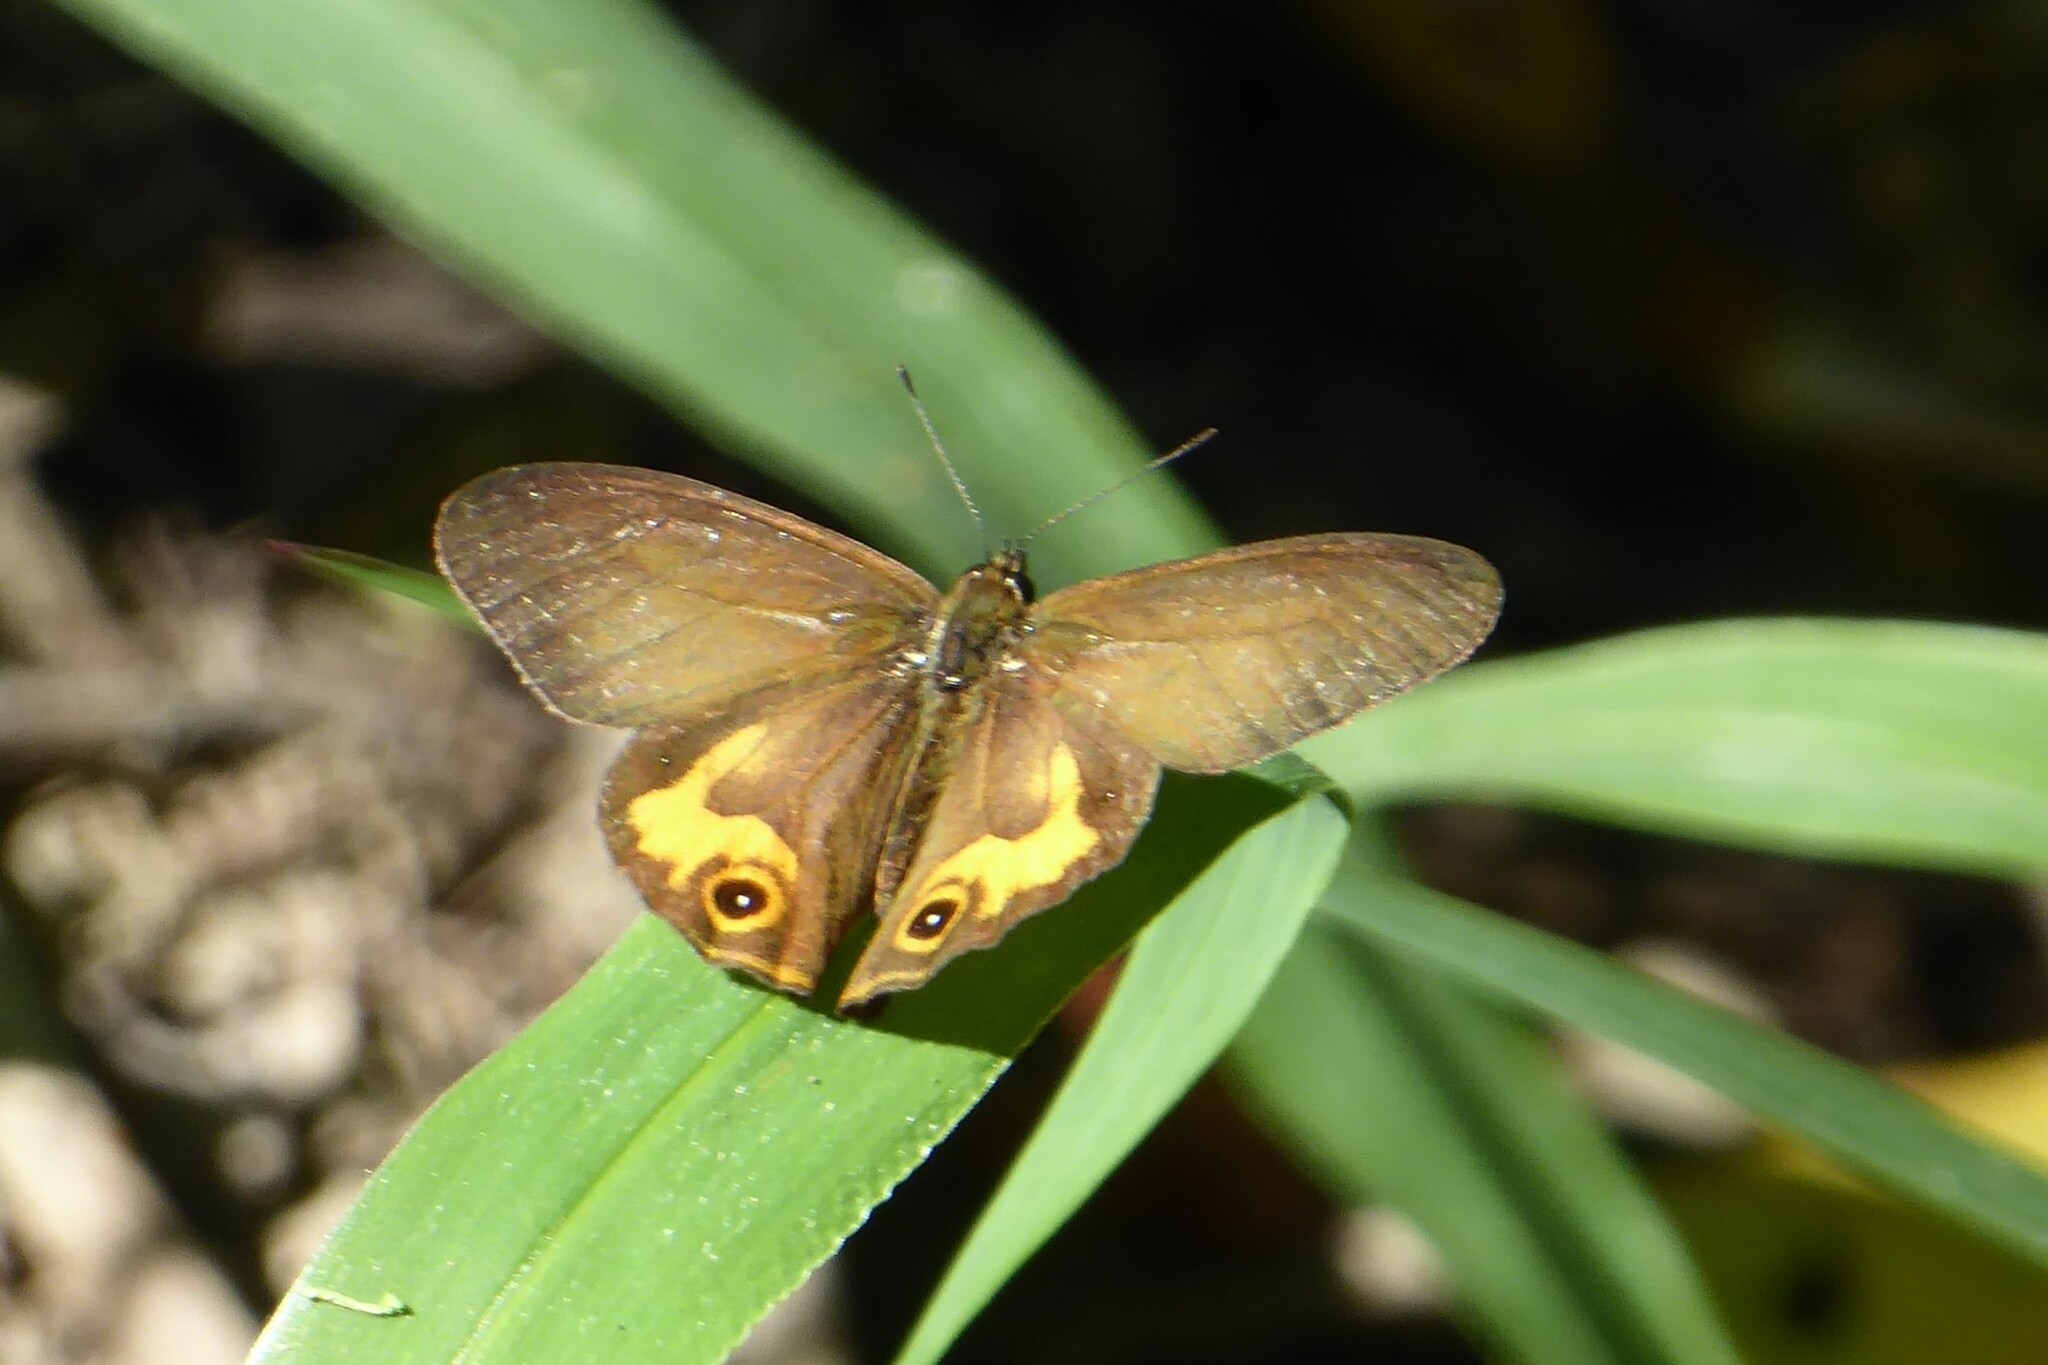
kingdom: Animalia
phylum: Arthropoda
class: Insecta
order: Lepidoptera
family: Nymphalidae
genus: Hypocysta
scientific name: Hypocysta metirius
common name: Brown ringlet
